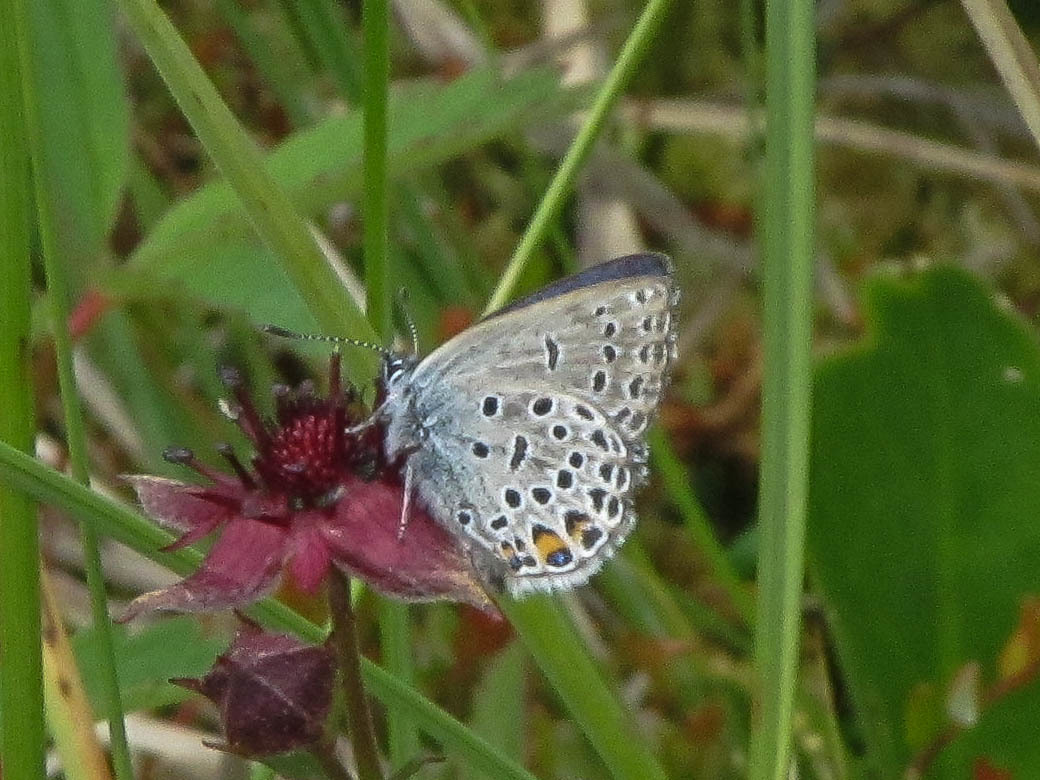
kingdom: Animalia
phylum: Arthropoda
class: Insecta
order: Lepidoptera
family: Lycaenidae
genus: Vacciniina
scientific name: Vacciniina optilete
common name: Cranberry blue
